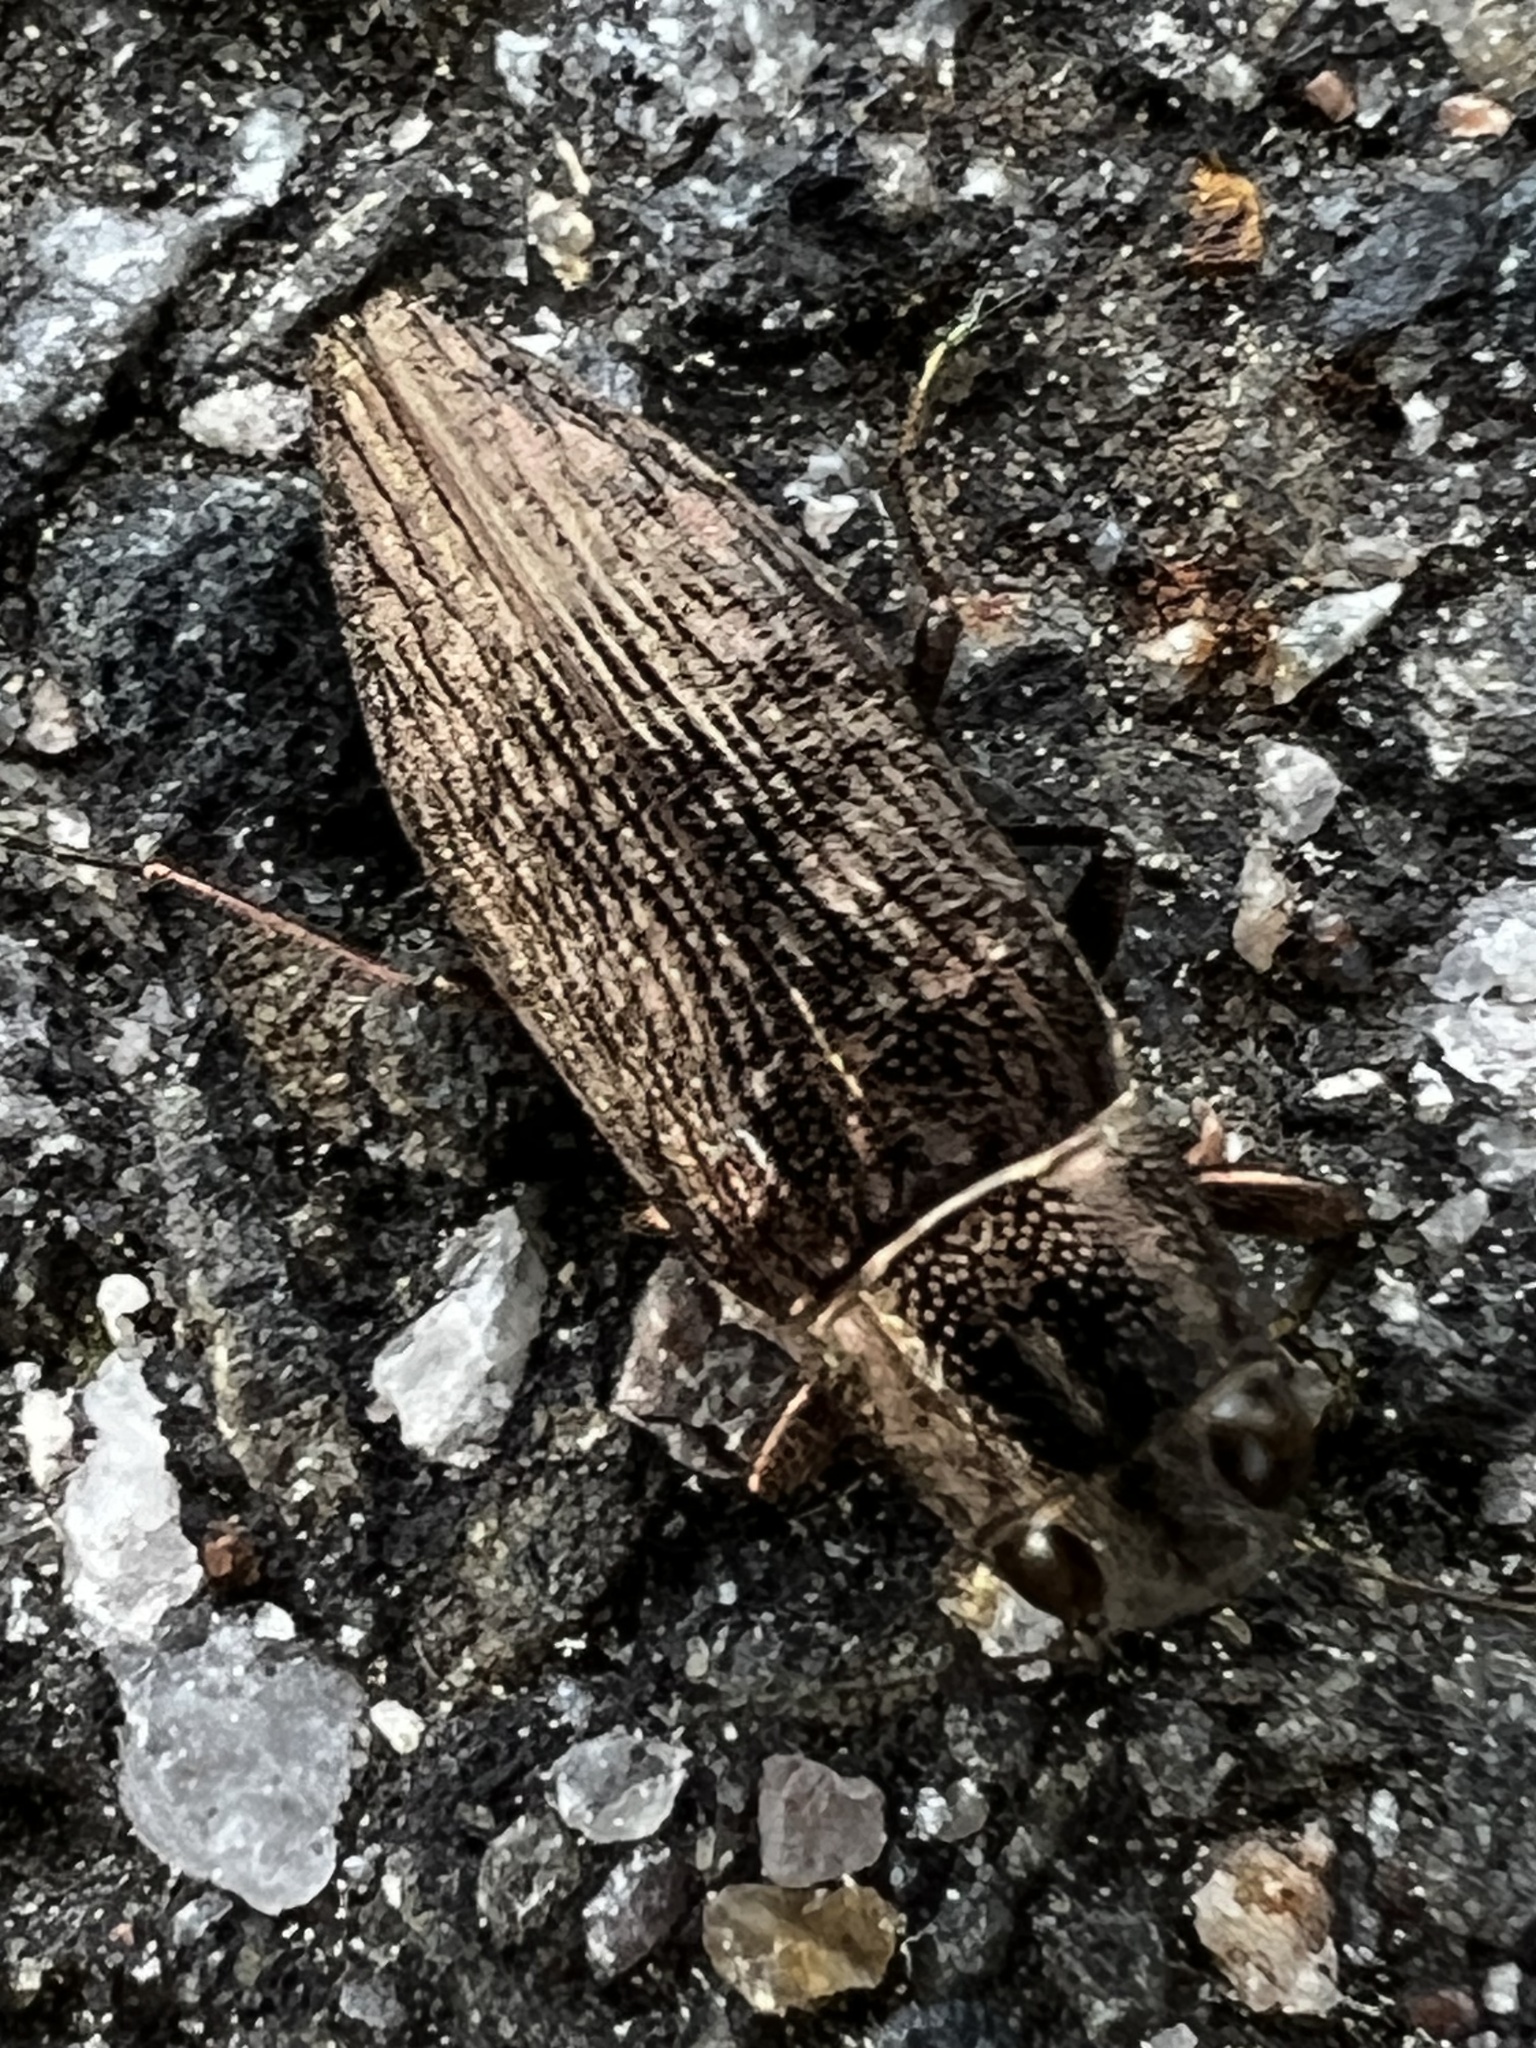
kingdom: Animalia
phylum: Arthropoda
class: Insecta
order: Coleoptera
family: Buprestidae
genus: Spectralia
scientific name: Spectralia gracilipes
